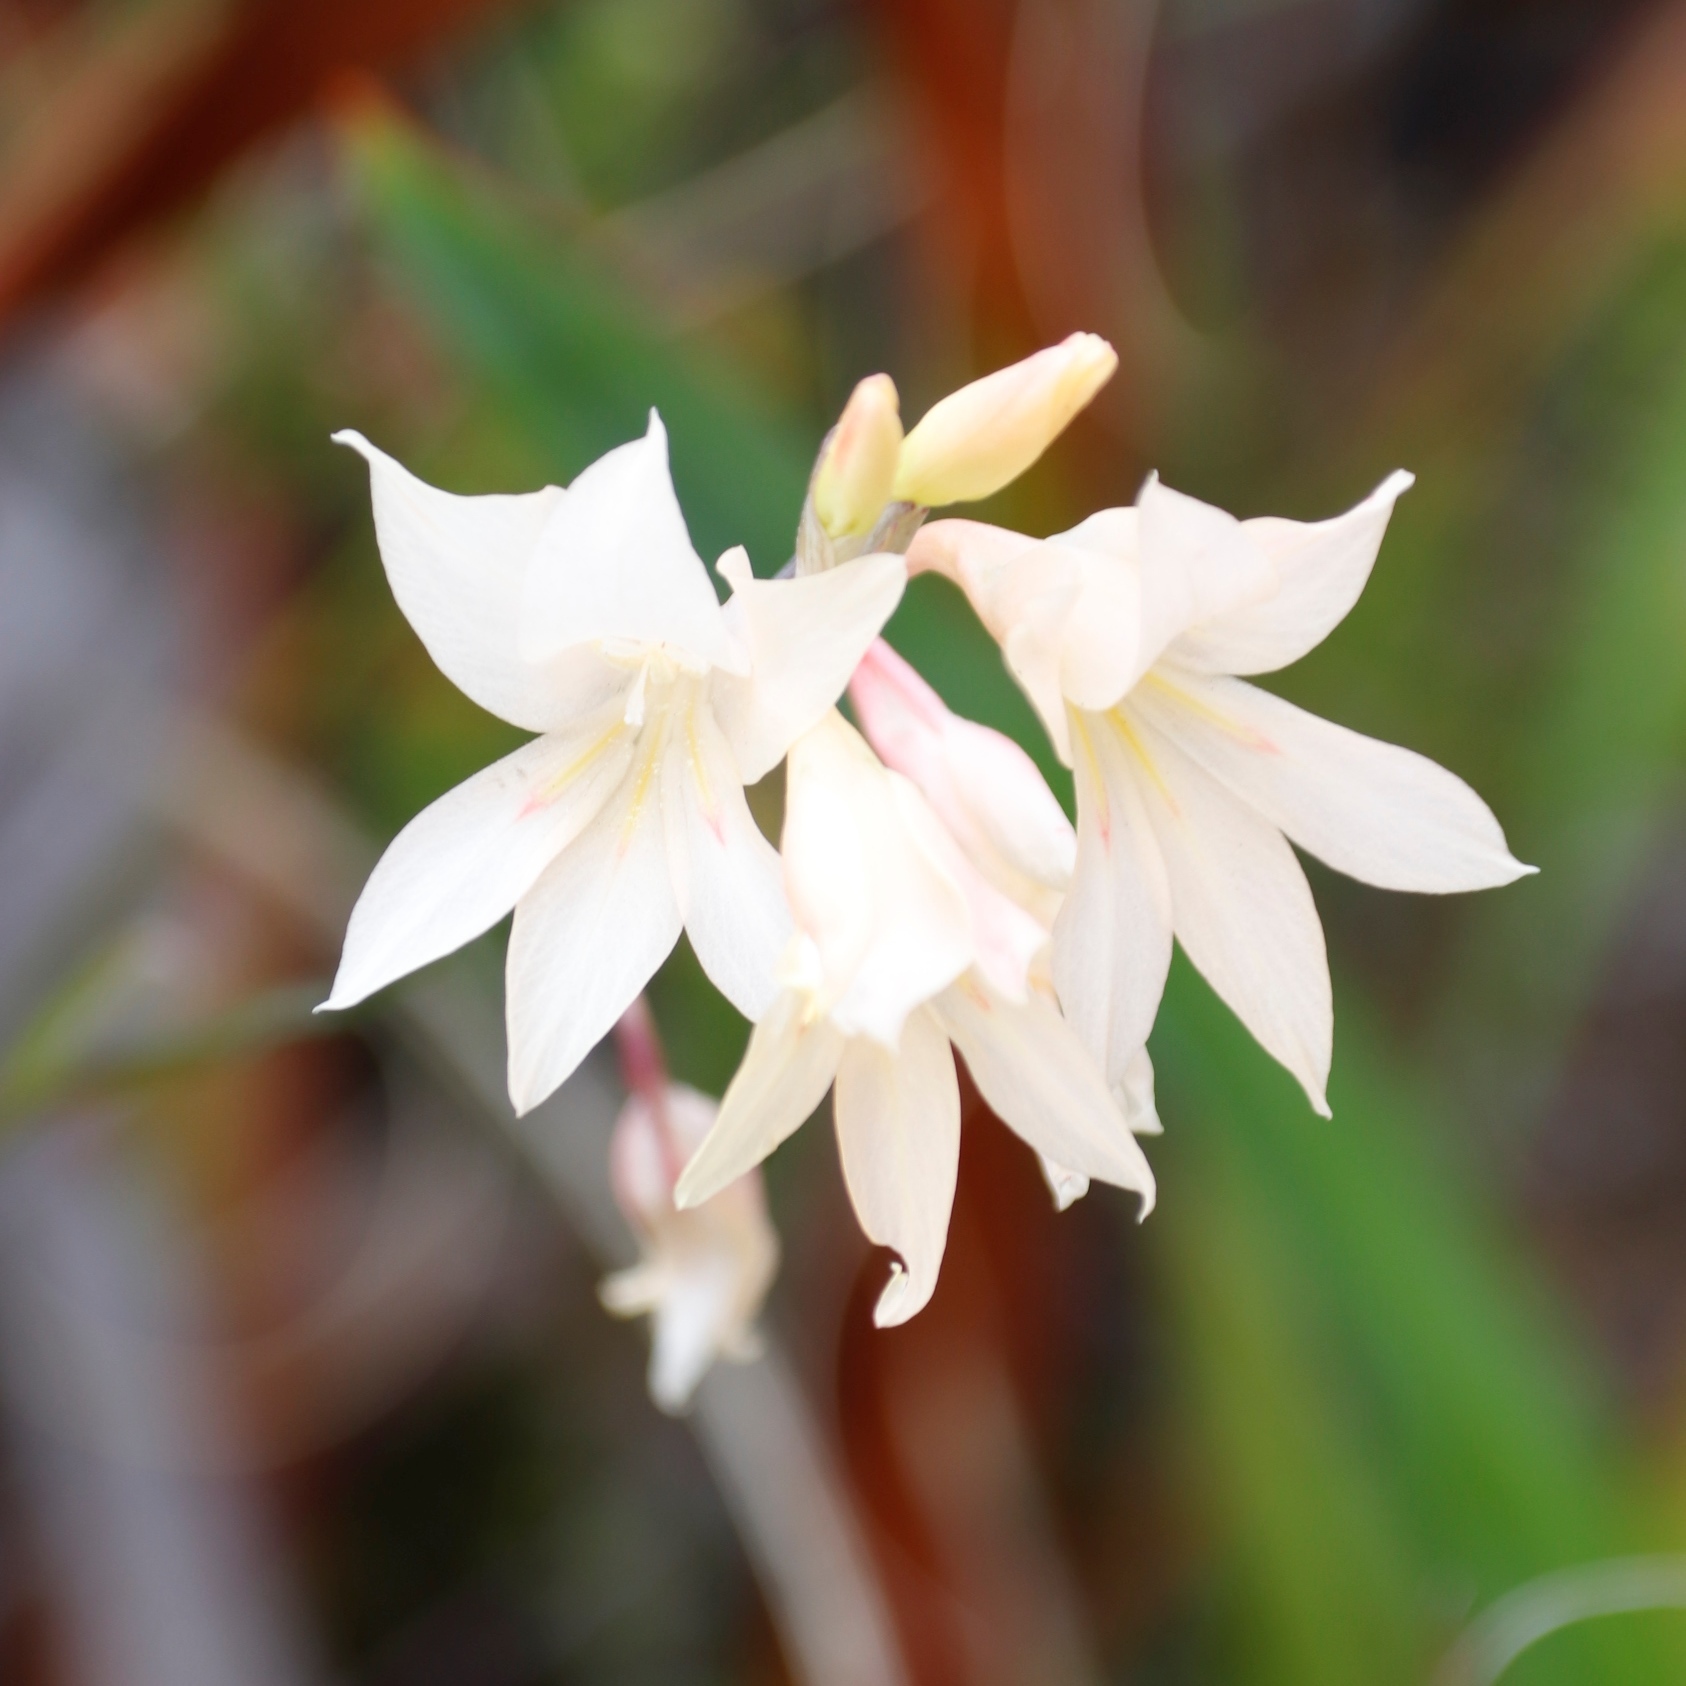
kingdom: Plantae
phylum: Tracheophyta
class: Liliopsida
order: Asparagales
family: Iridaceae
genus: Gladiolus
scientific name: Gladiolus monticola
